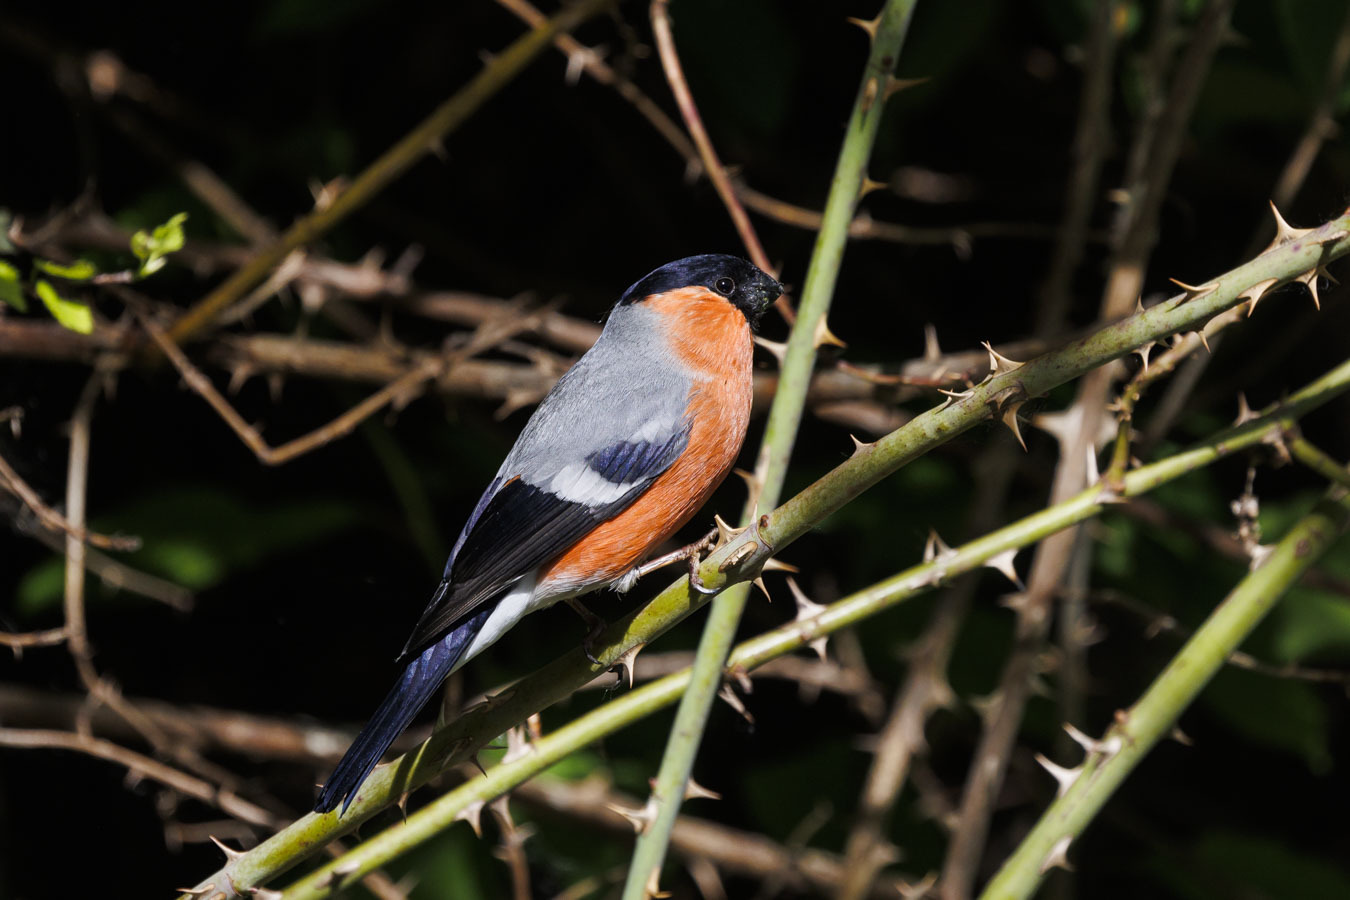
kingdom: Animalia
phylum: Chordata
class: Aves
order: Passeriformes
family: Fringillidae
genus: Pyrrhula
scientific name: Pyrrhula pyrrhula
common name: Eurasian bullfinch
